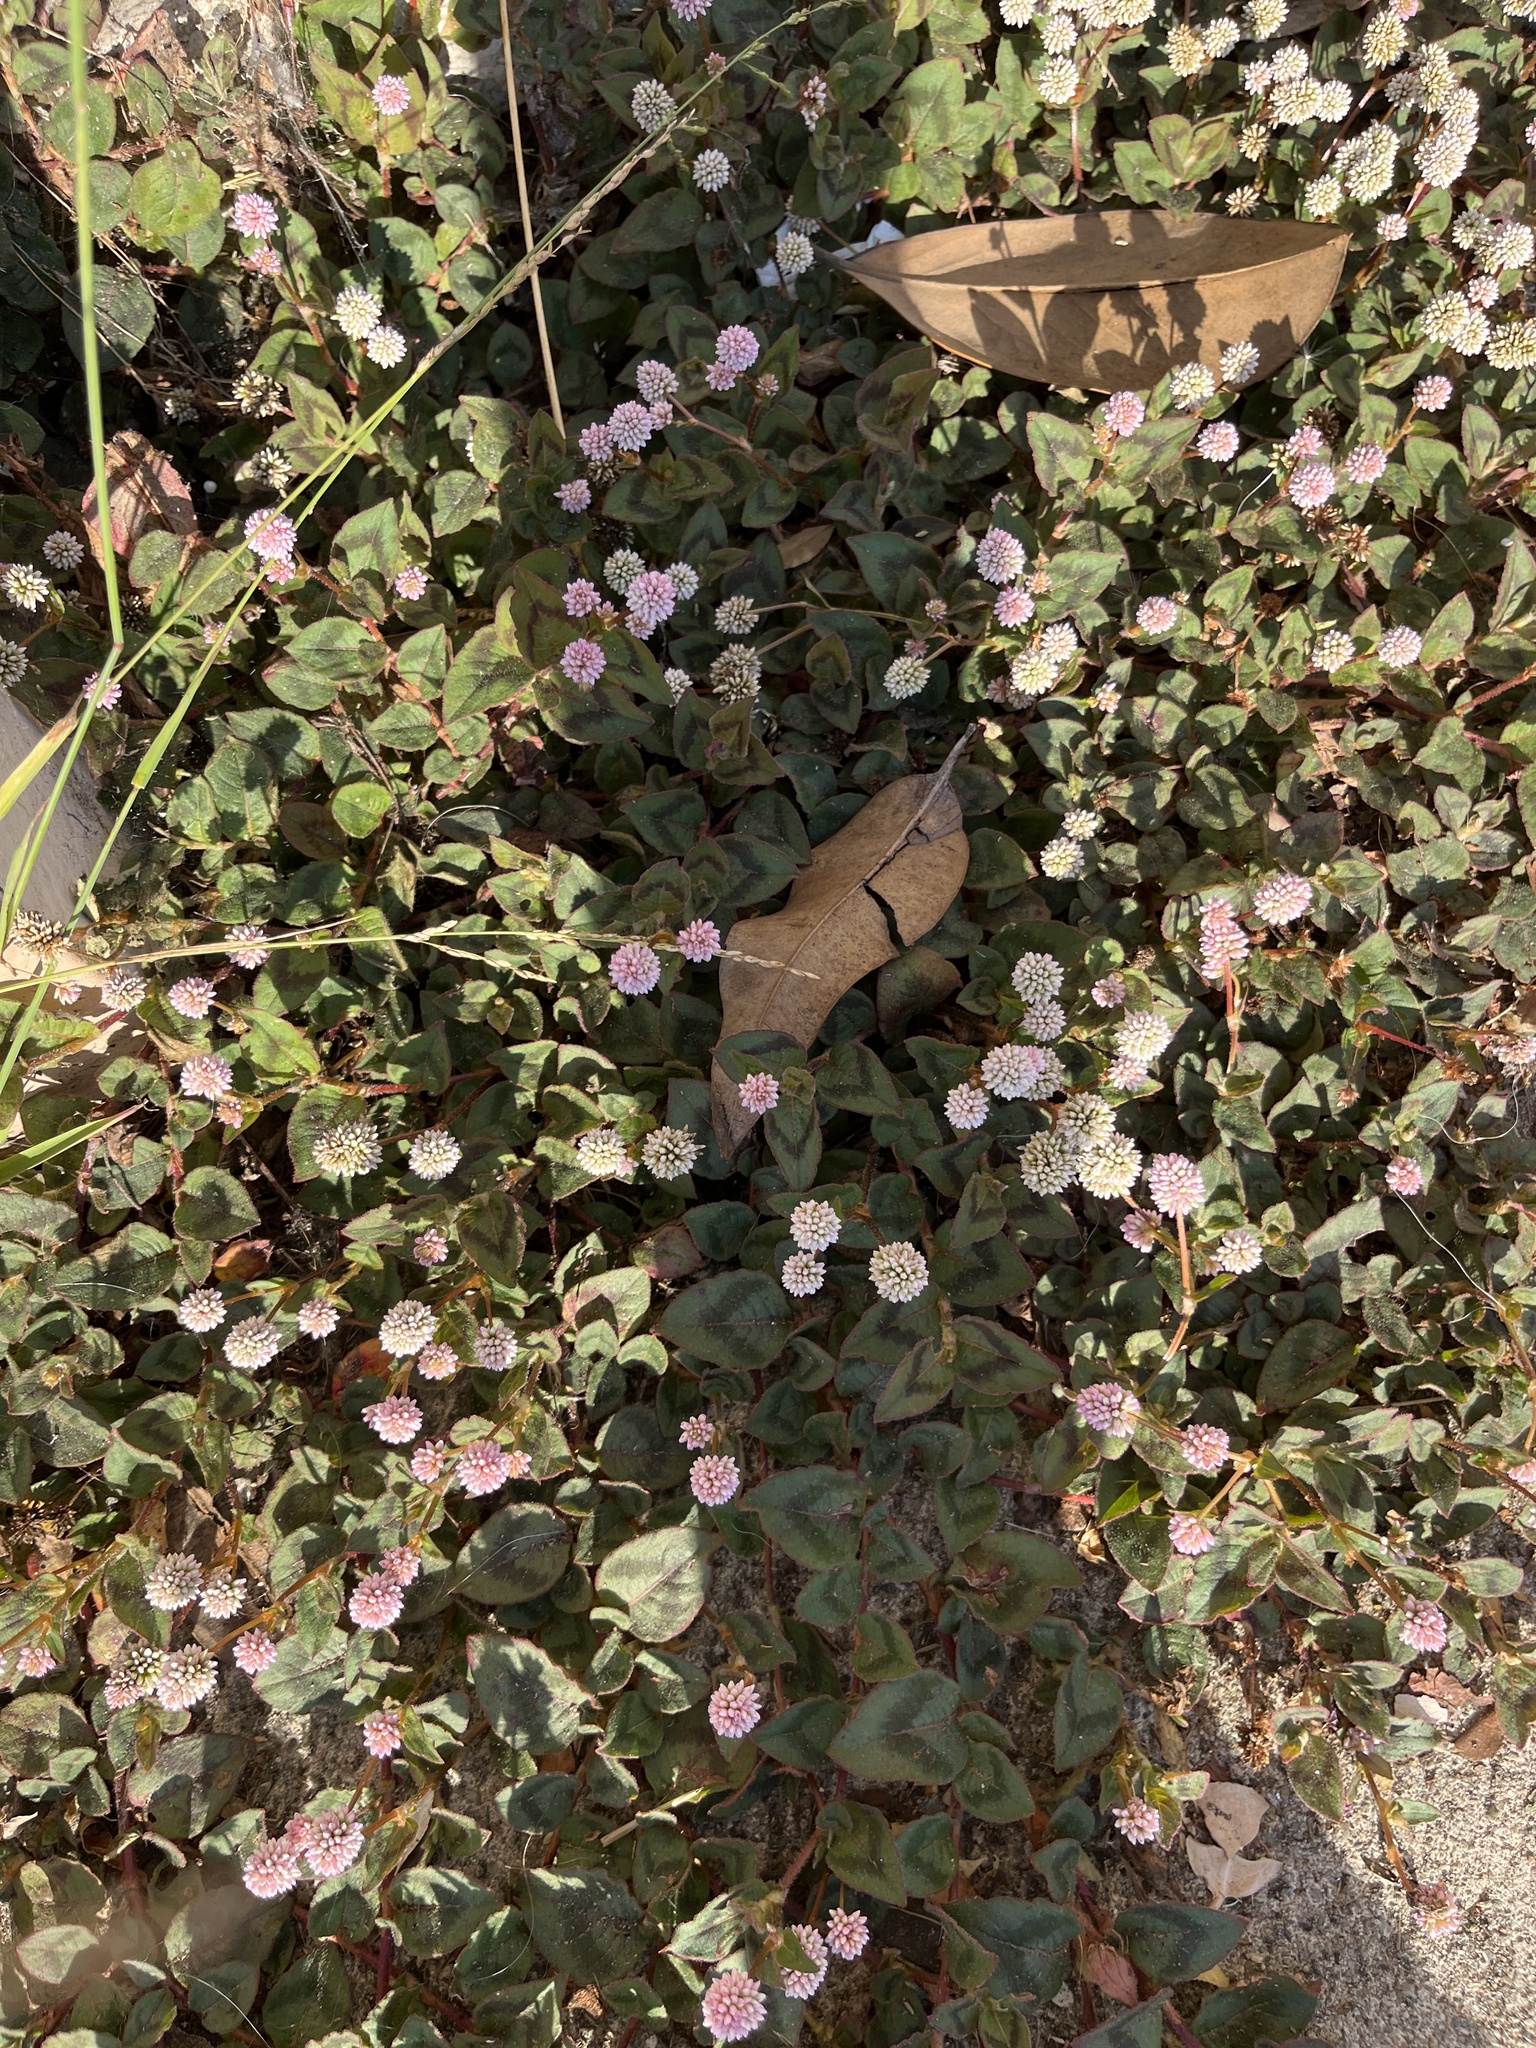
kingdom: Plantae
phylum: Tracheophyta
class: Magnoliopsida
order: Caryophyllales
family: Polygonaceae
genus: Persicaria
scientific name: Persicaria capitata
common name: Pinkhead smartweed
